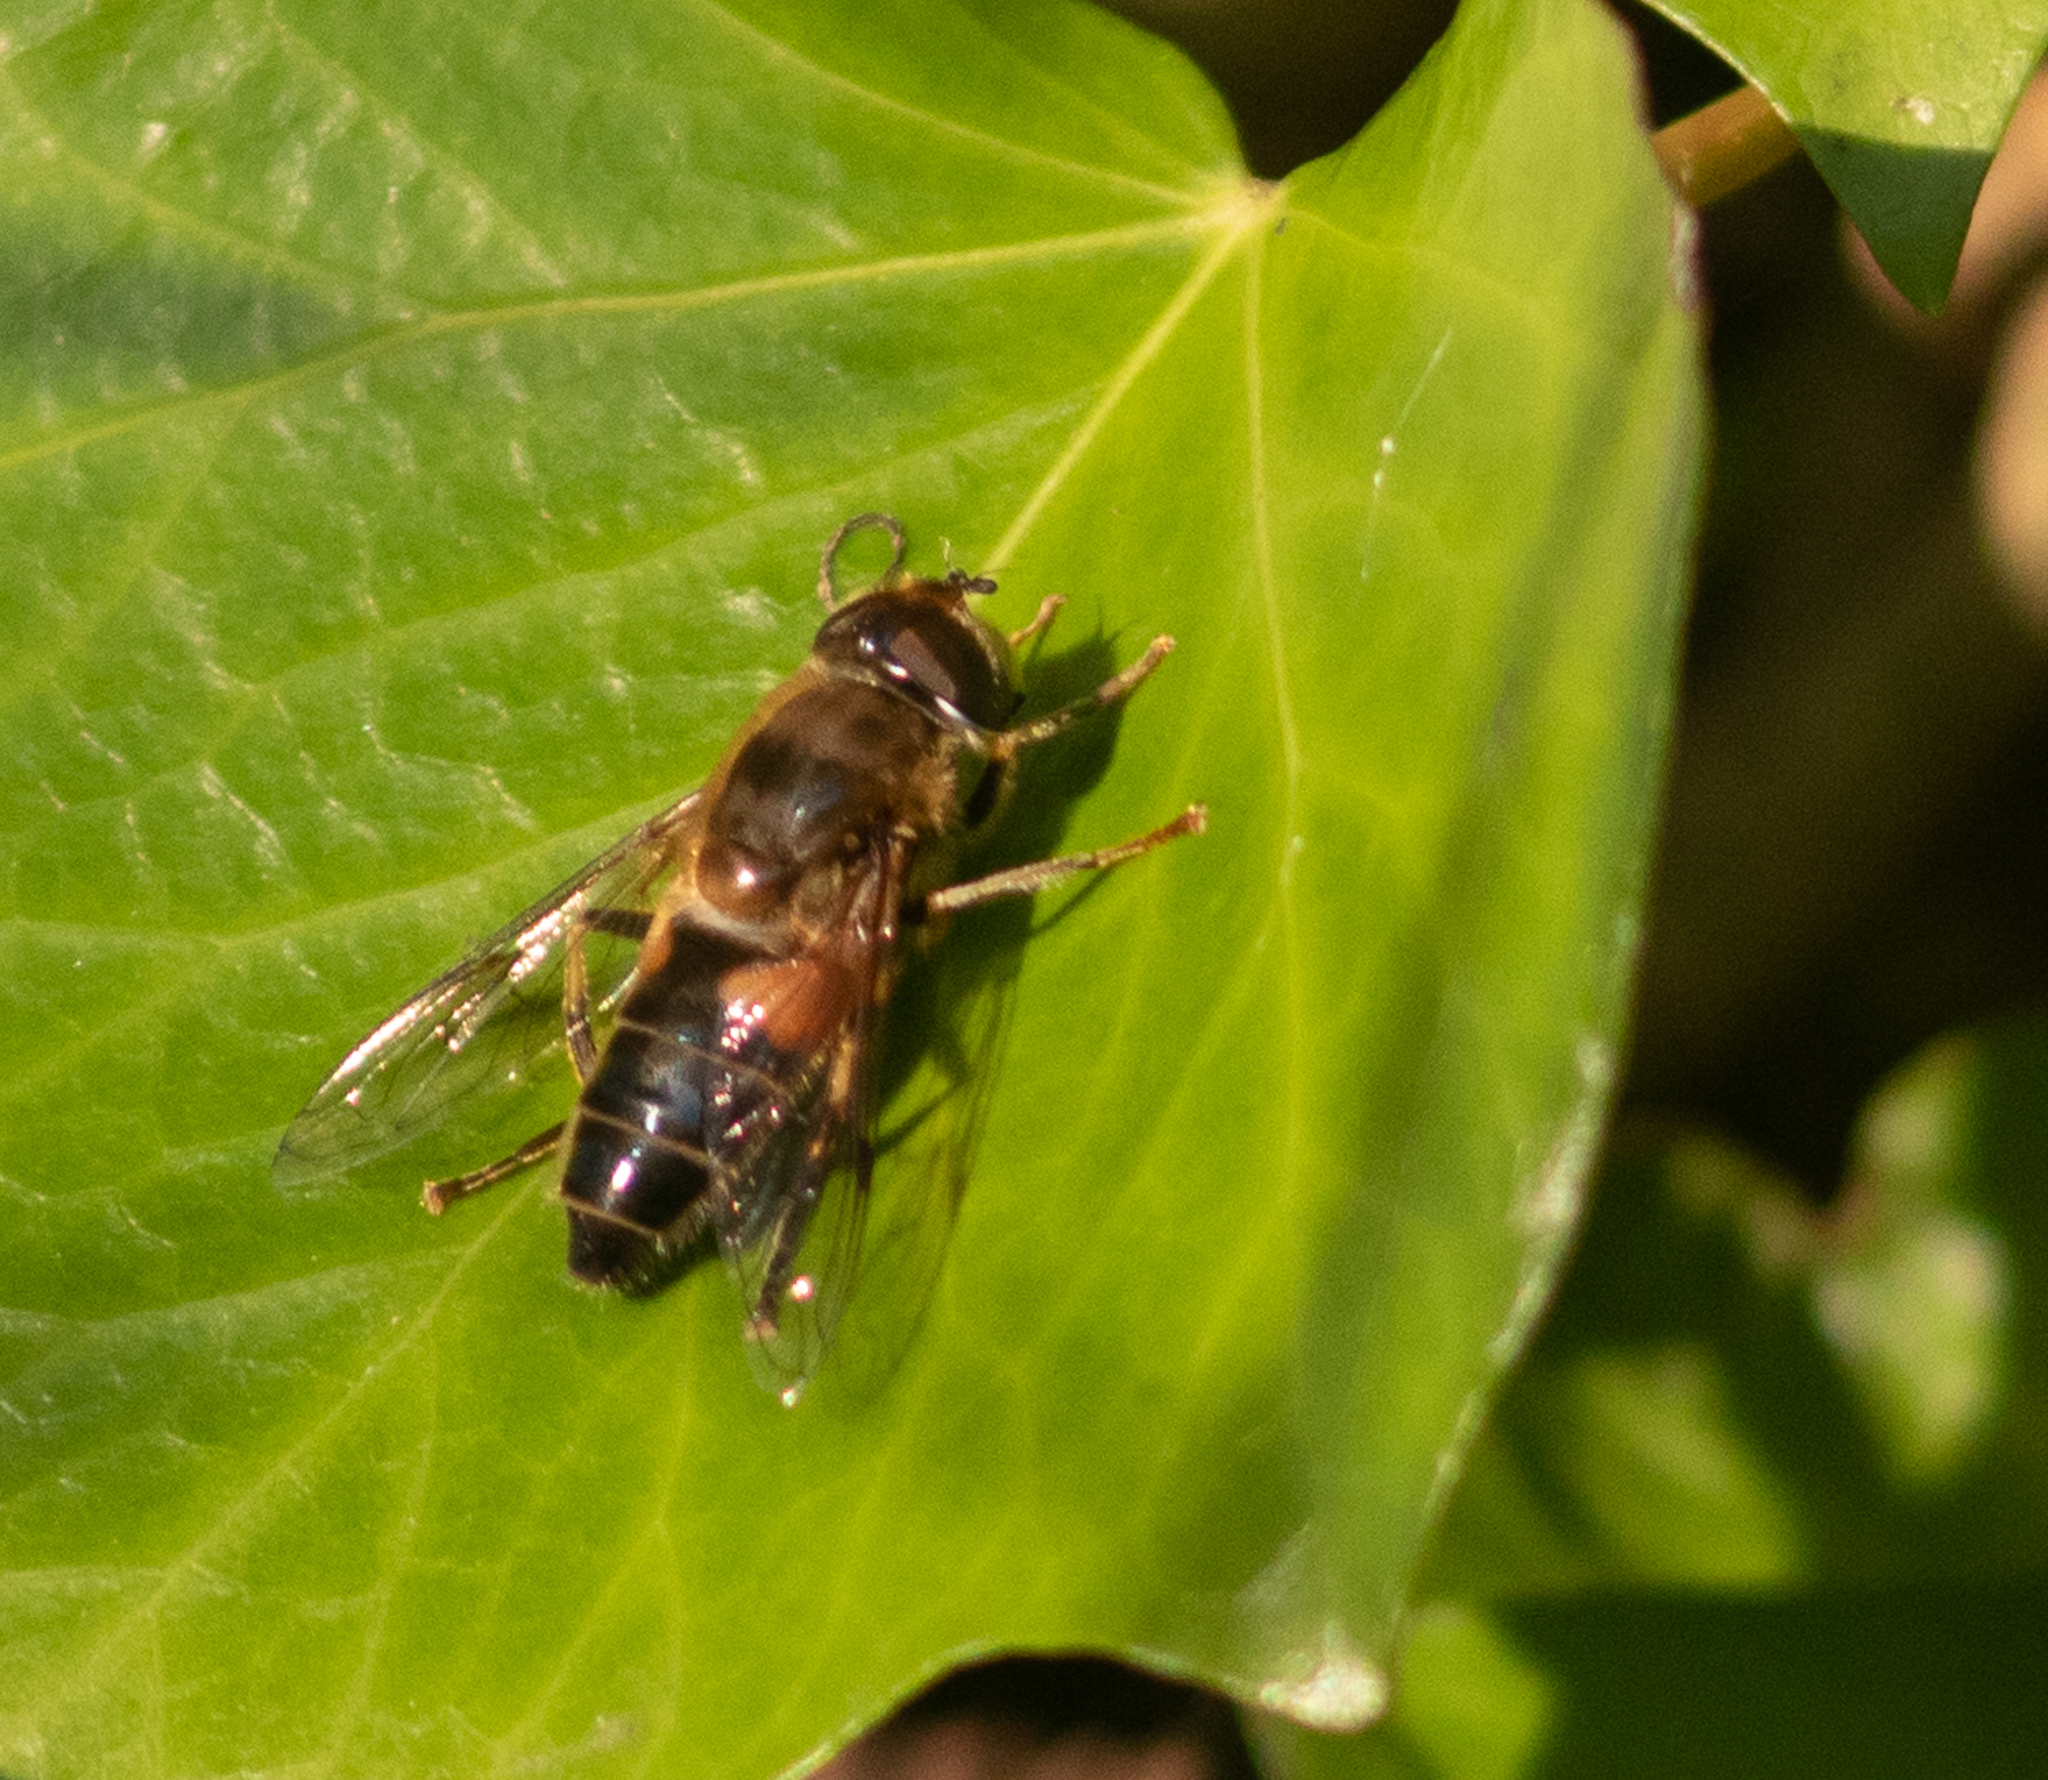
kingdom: Animalia
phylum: Arthropoda
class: Insecta
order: Diptera
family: Syrphidae
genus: Eristalis
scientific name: Eristalis pertinax
